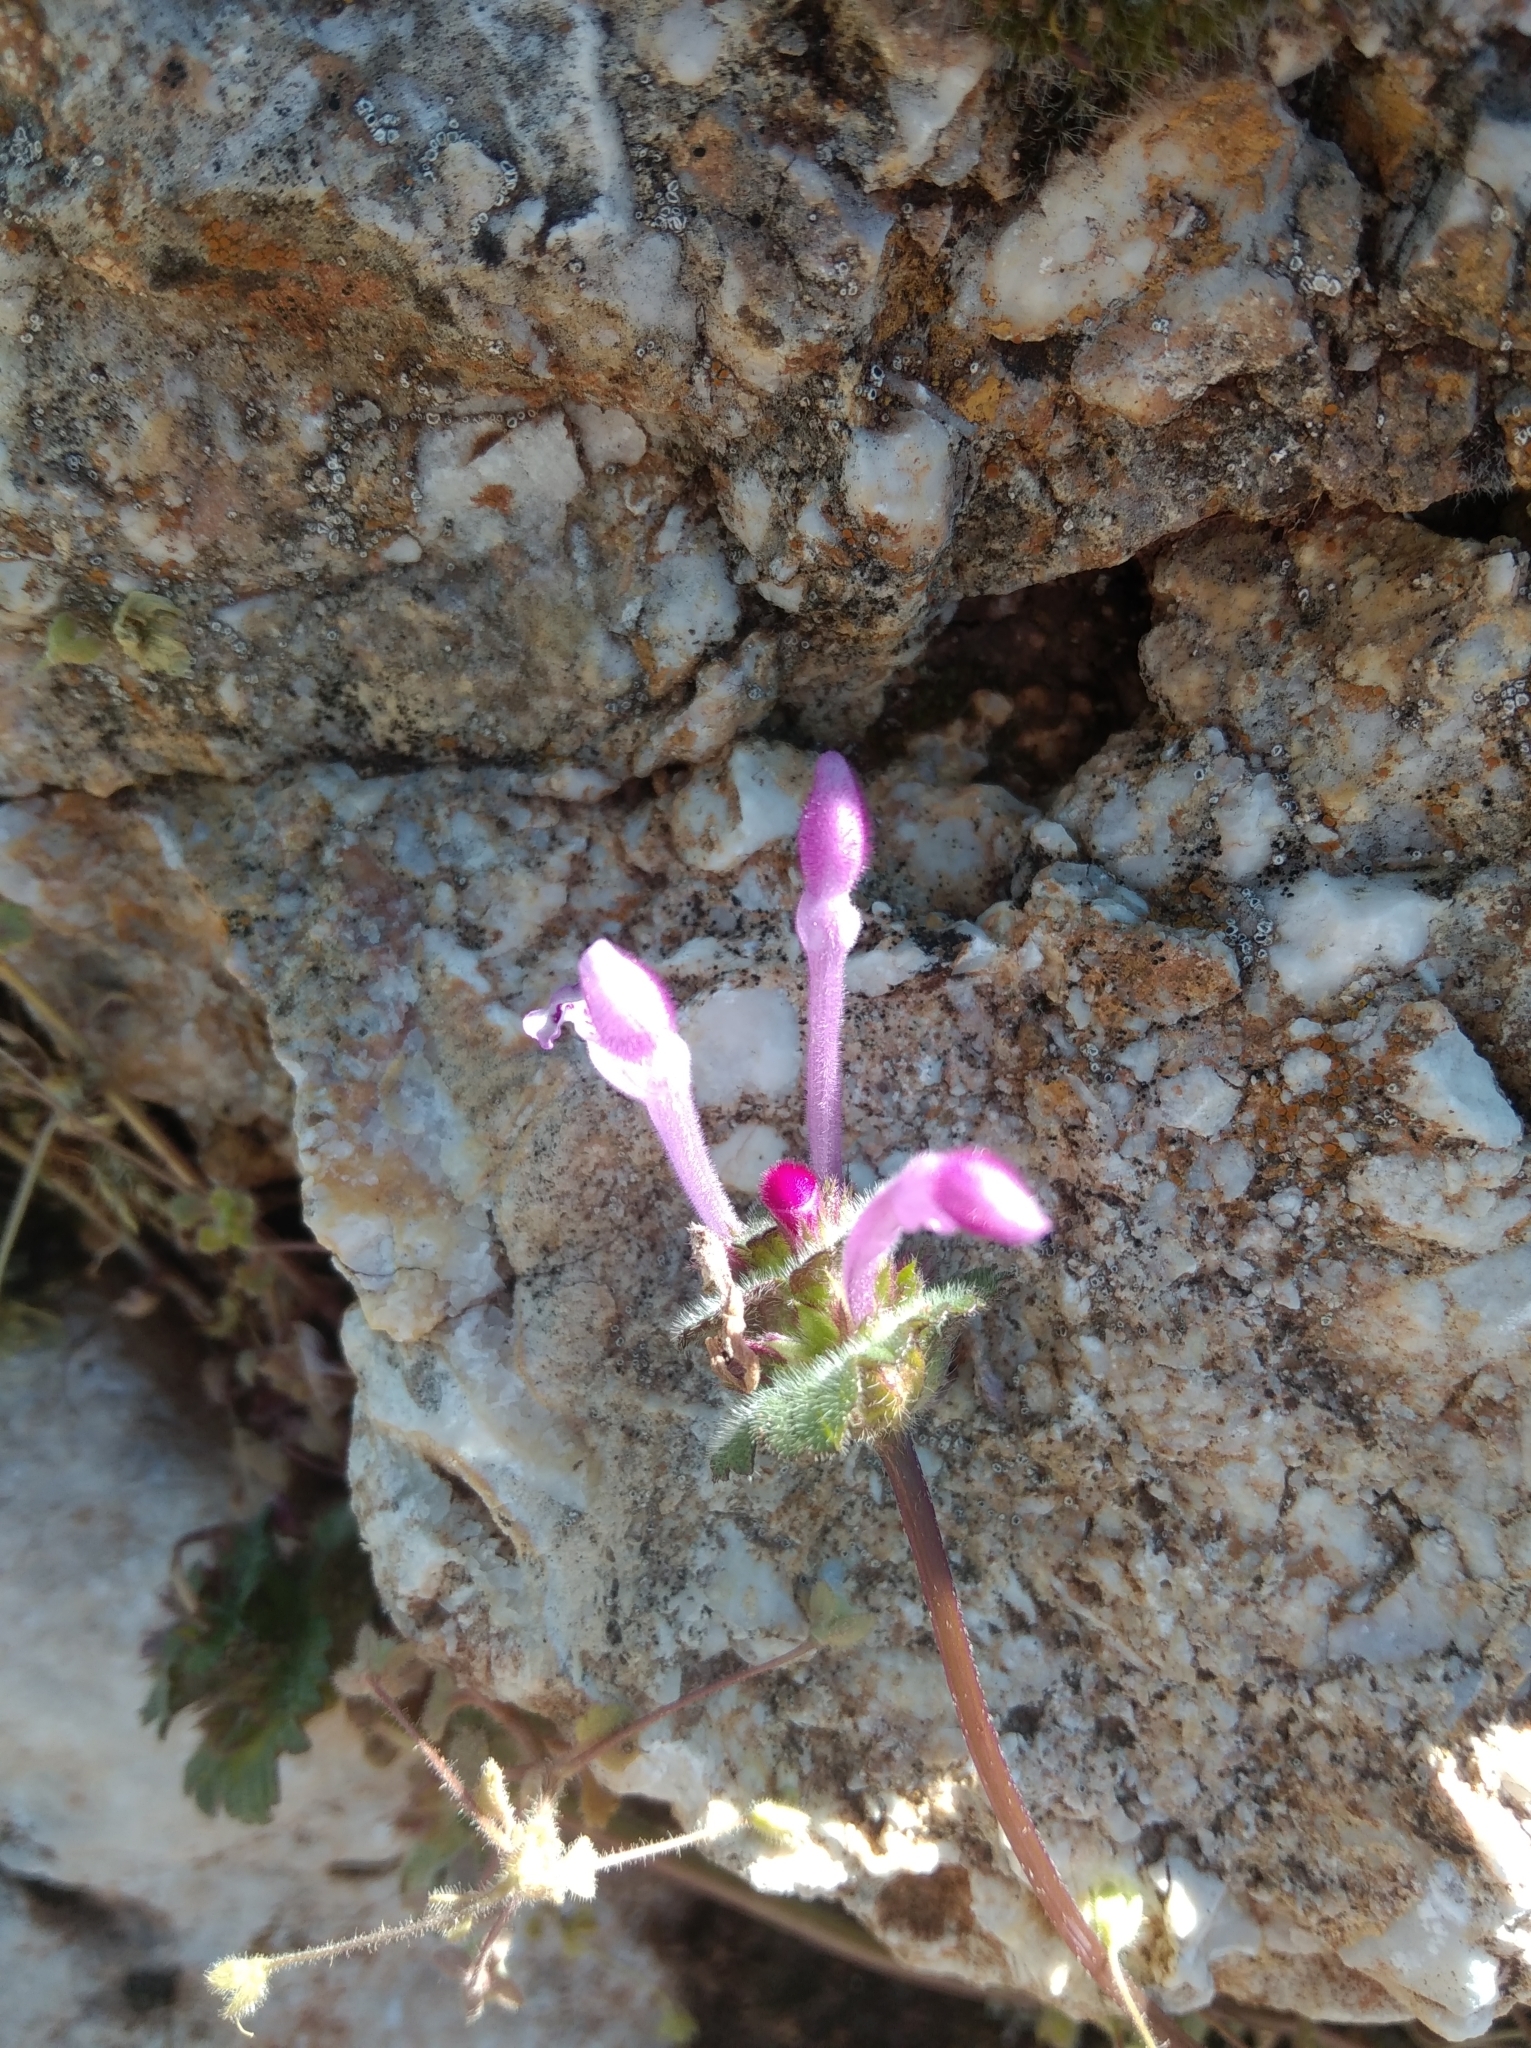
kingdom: Plantae
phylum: Tracheophyta
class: Magnoliopsida
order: Lamiales
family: Lamiaceae
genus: Lamium
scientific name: Lamium amplexicaule
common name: Henbit dead-nettle
